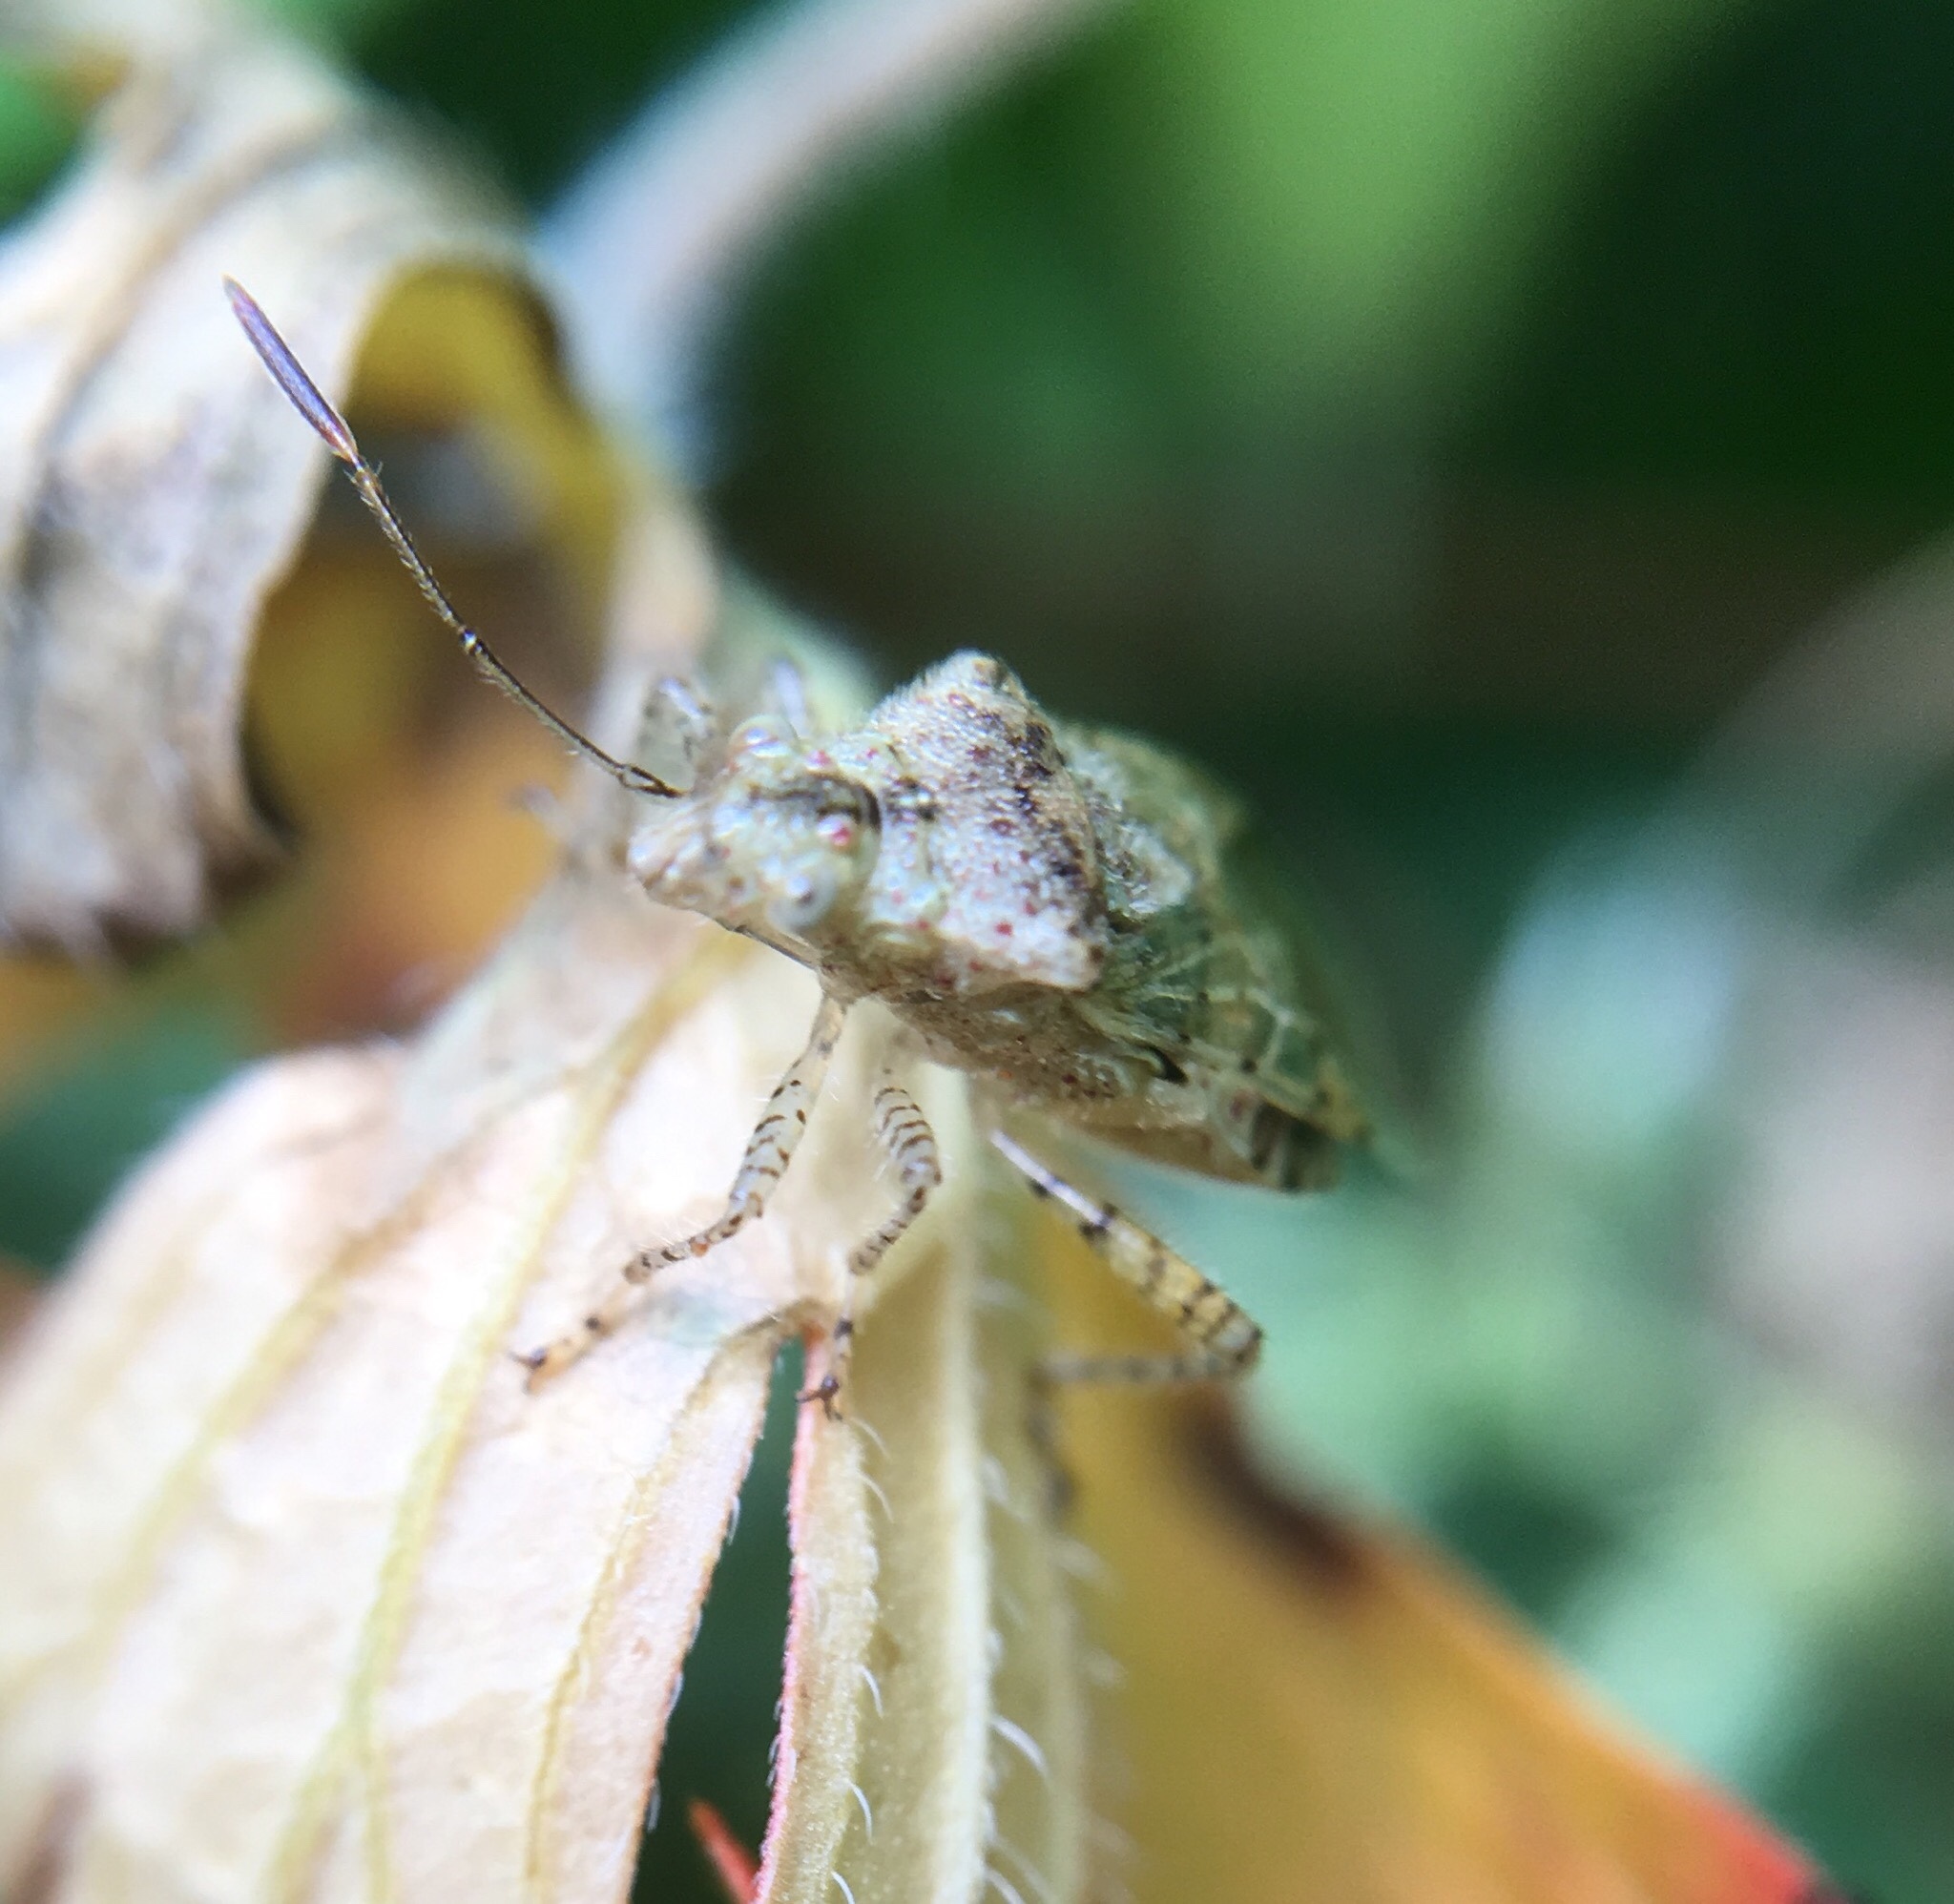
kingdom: Animalia
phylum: Arthropoda
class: Insecta
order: Hemiptera
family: Rhopalidae
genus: Niesthrea
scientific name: Niesthrea louisianica
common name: Scentless plant bug
